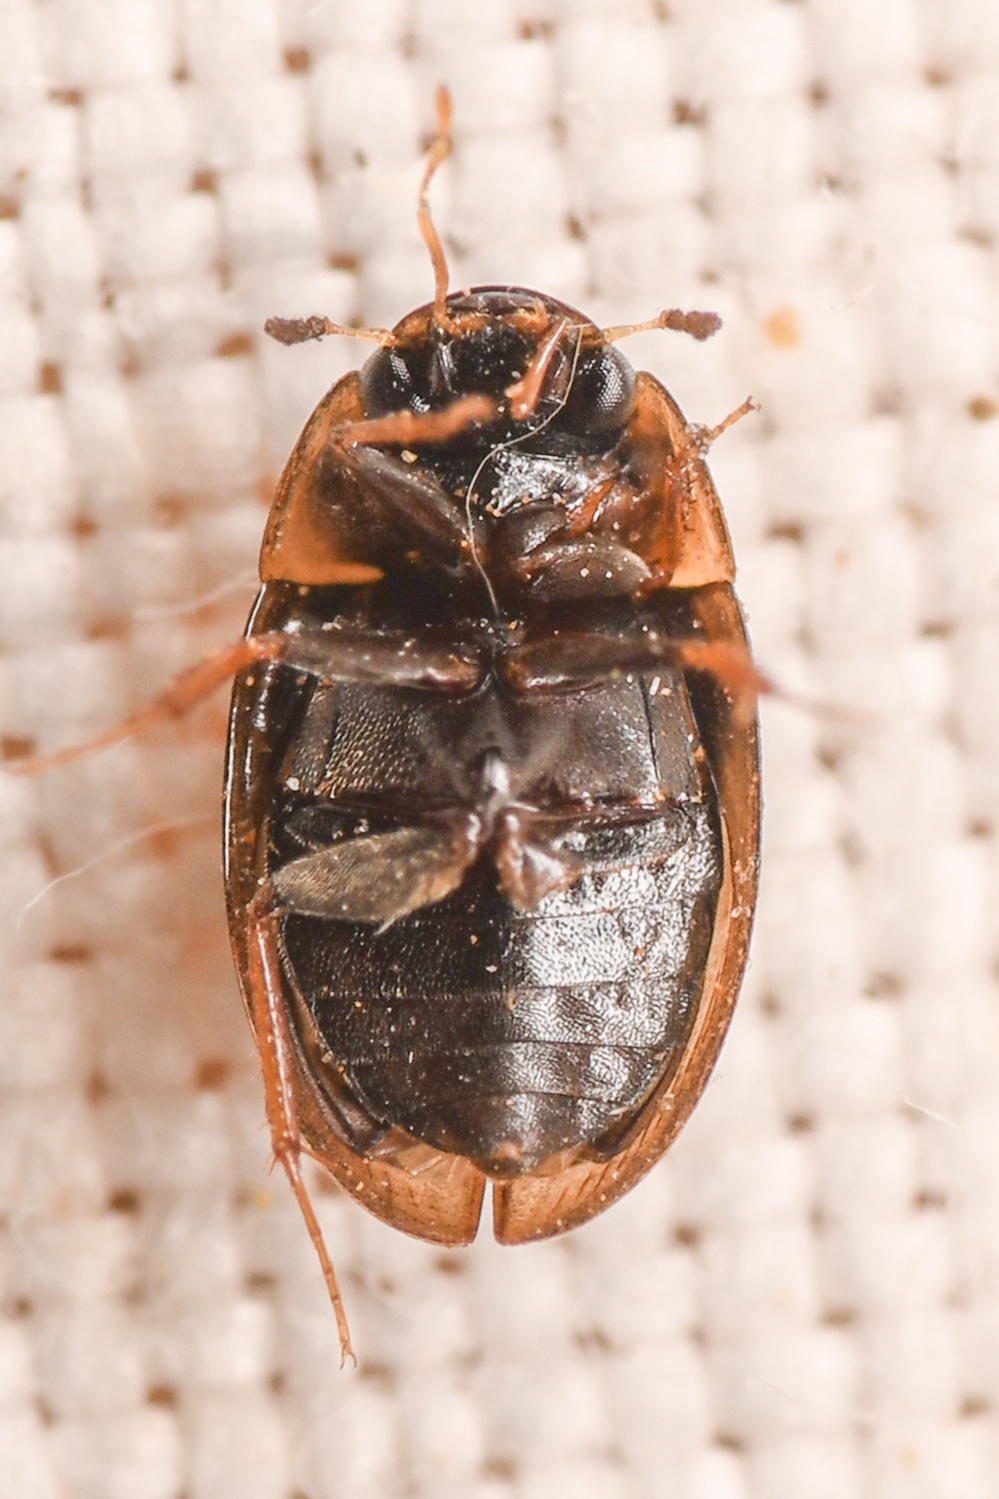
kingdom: Animalia
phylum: Arthropoda
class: Insecta
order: Coleoptera
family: Hydrophilidae
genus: Enochrus
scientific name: Enochrus
